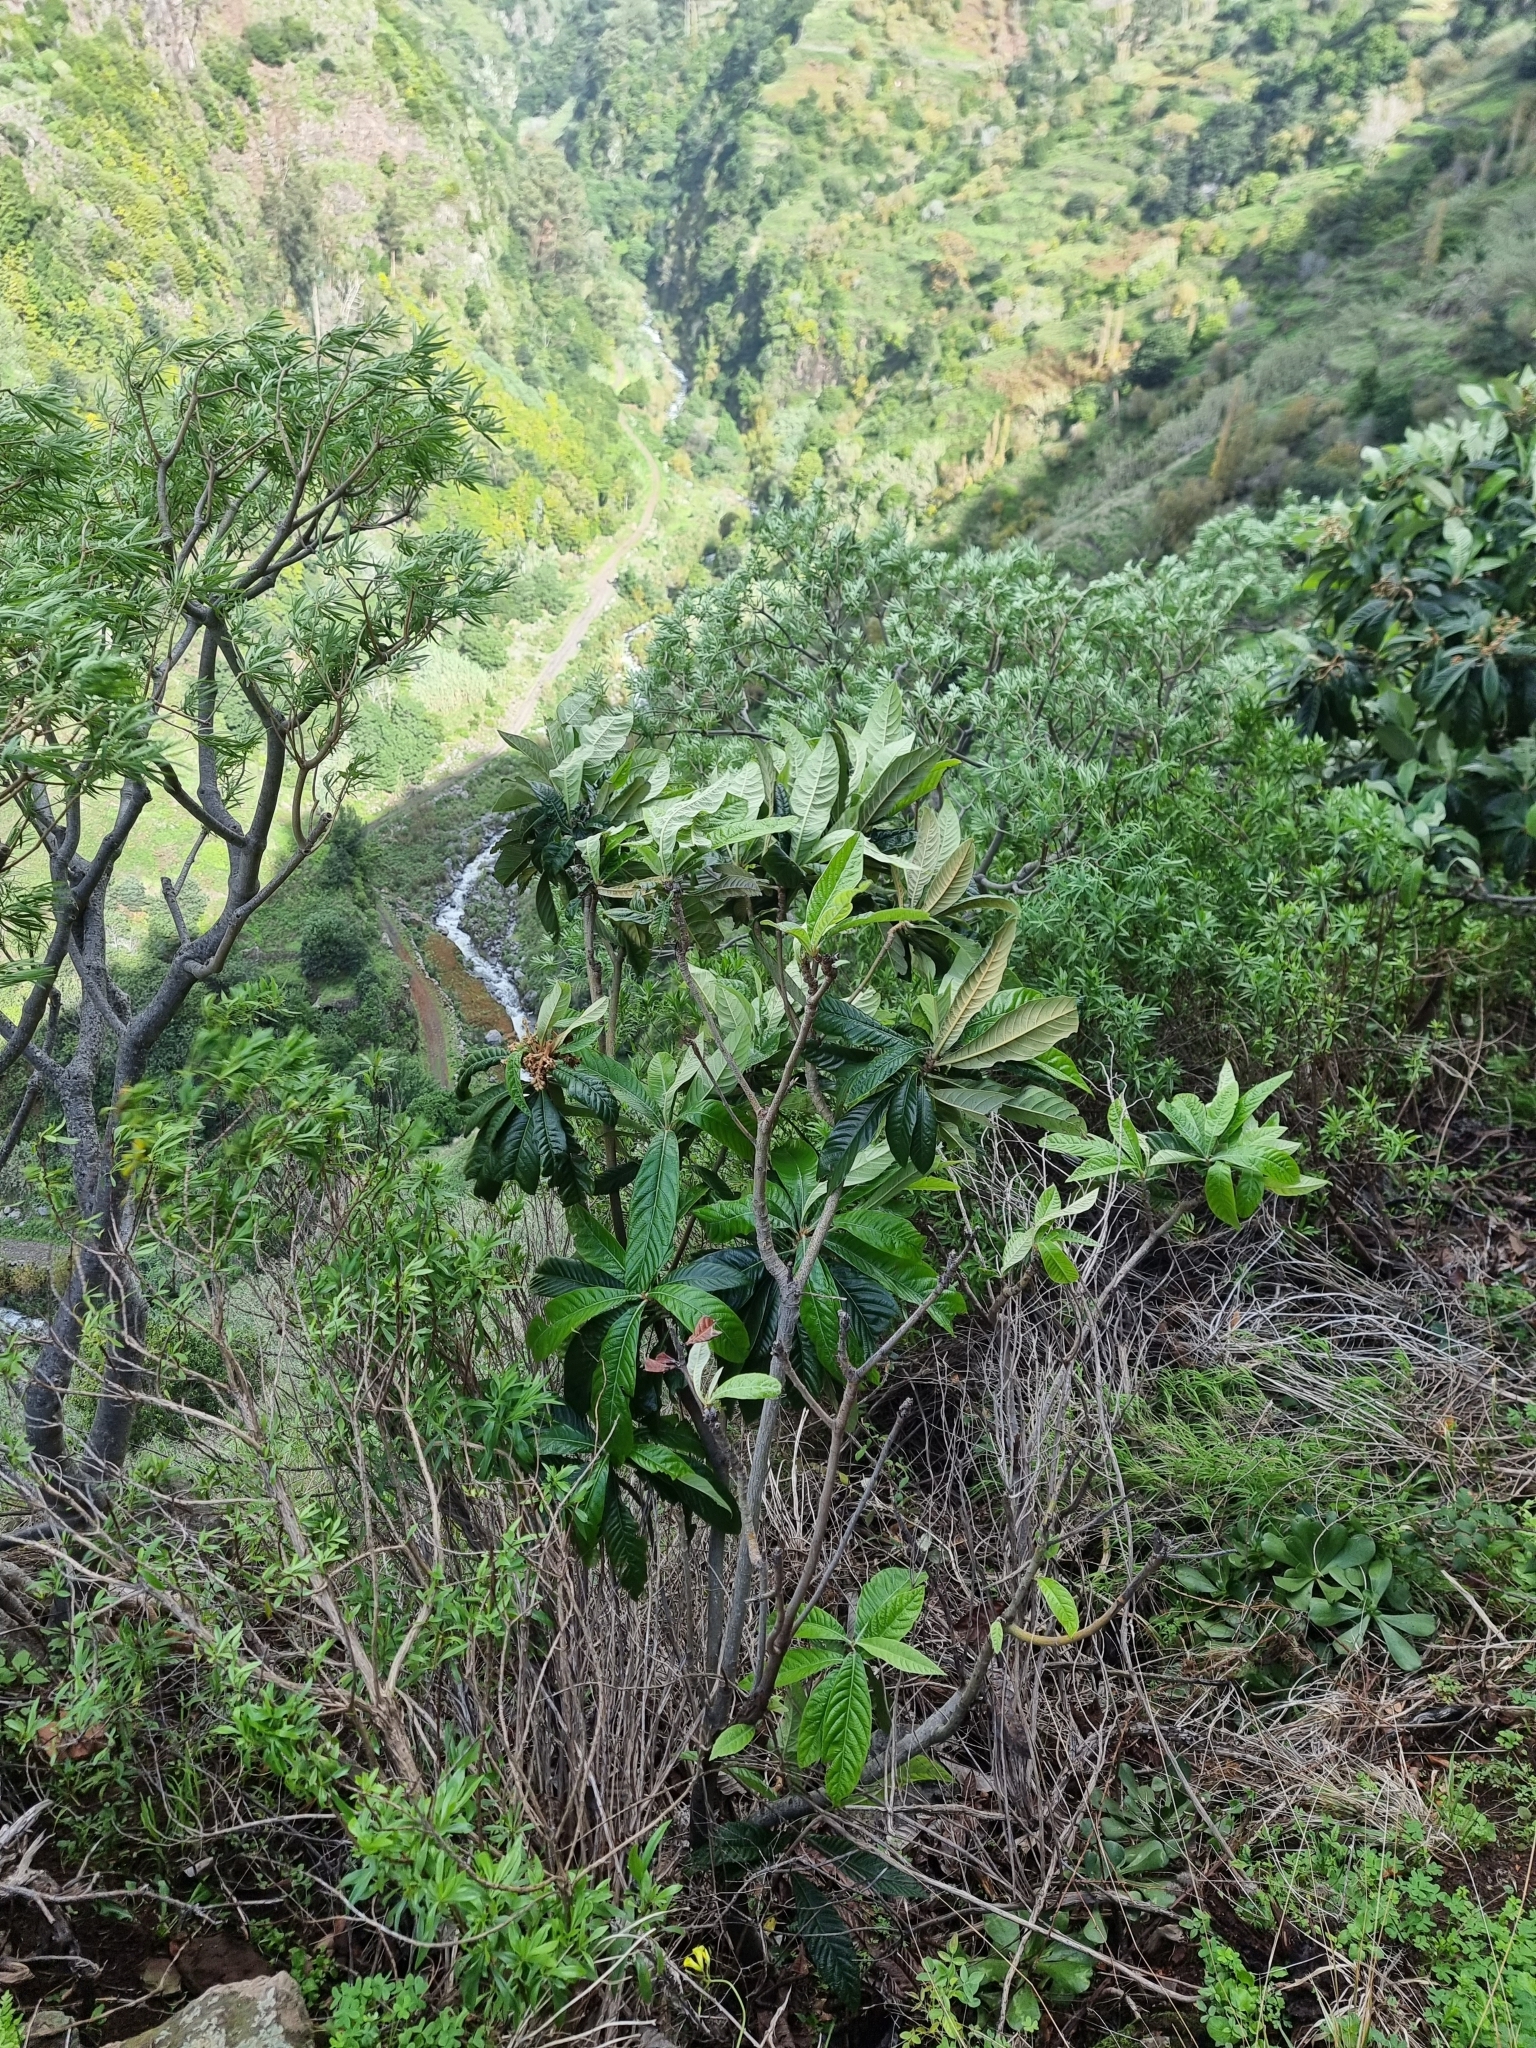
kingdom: Plantae
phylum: Tracheophyta
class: Magnoliopsida
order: Rosales
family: Rosaceae
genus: Rhaphiolepis
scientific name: Rhaphiolepis bibas
